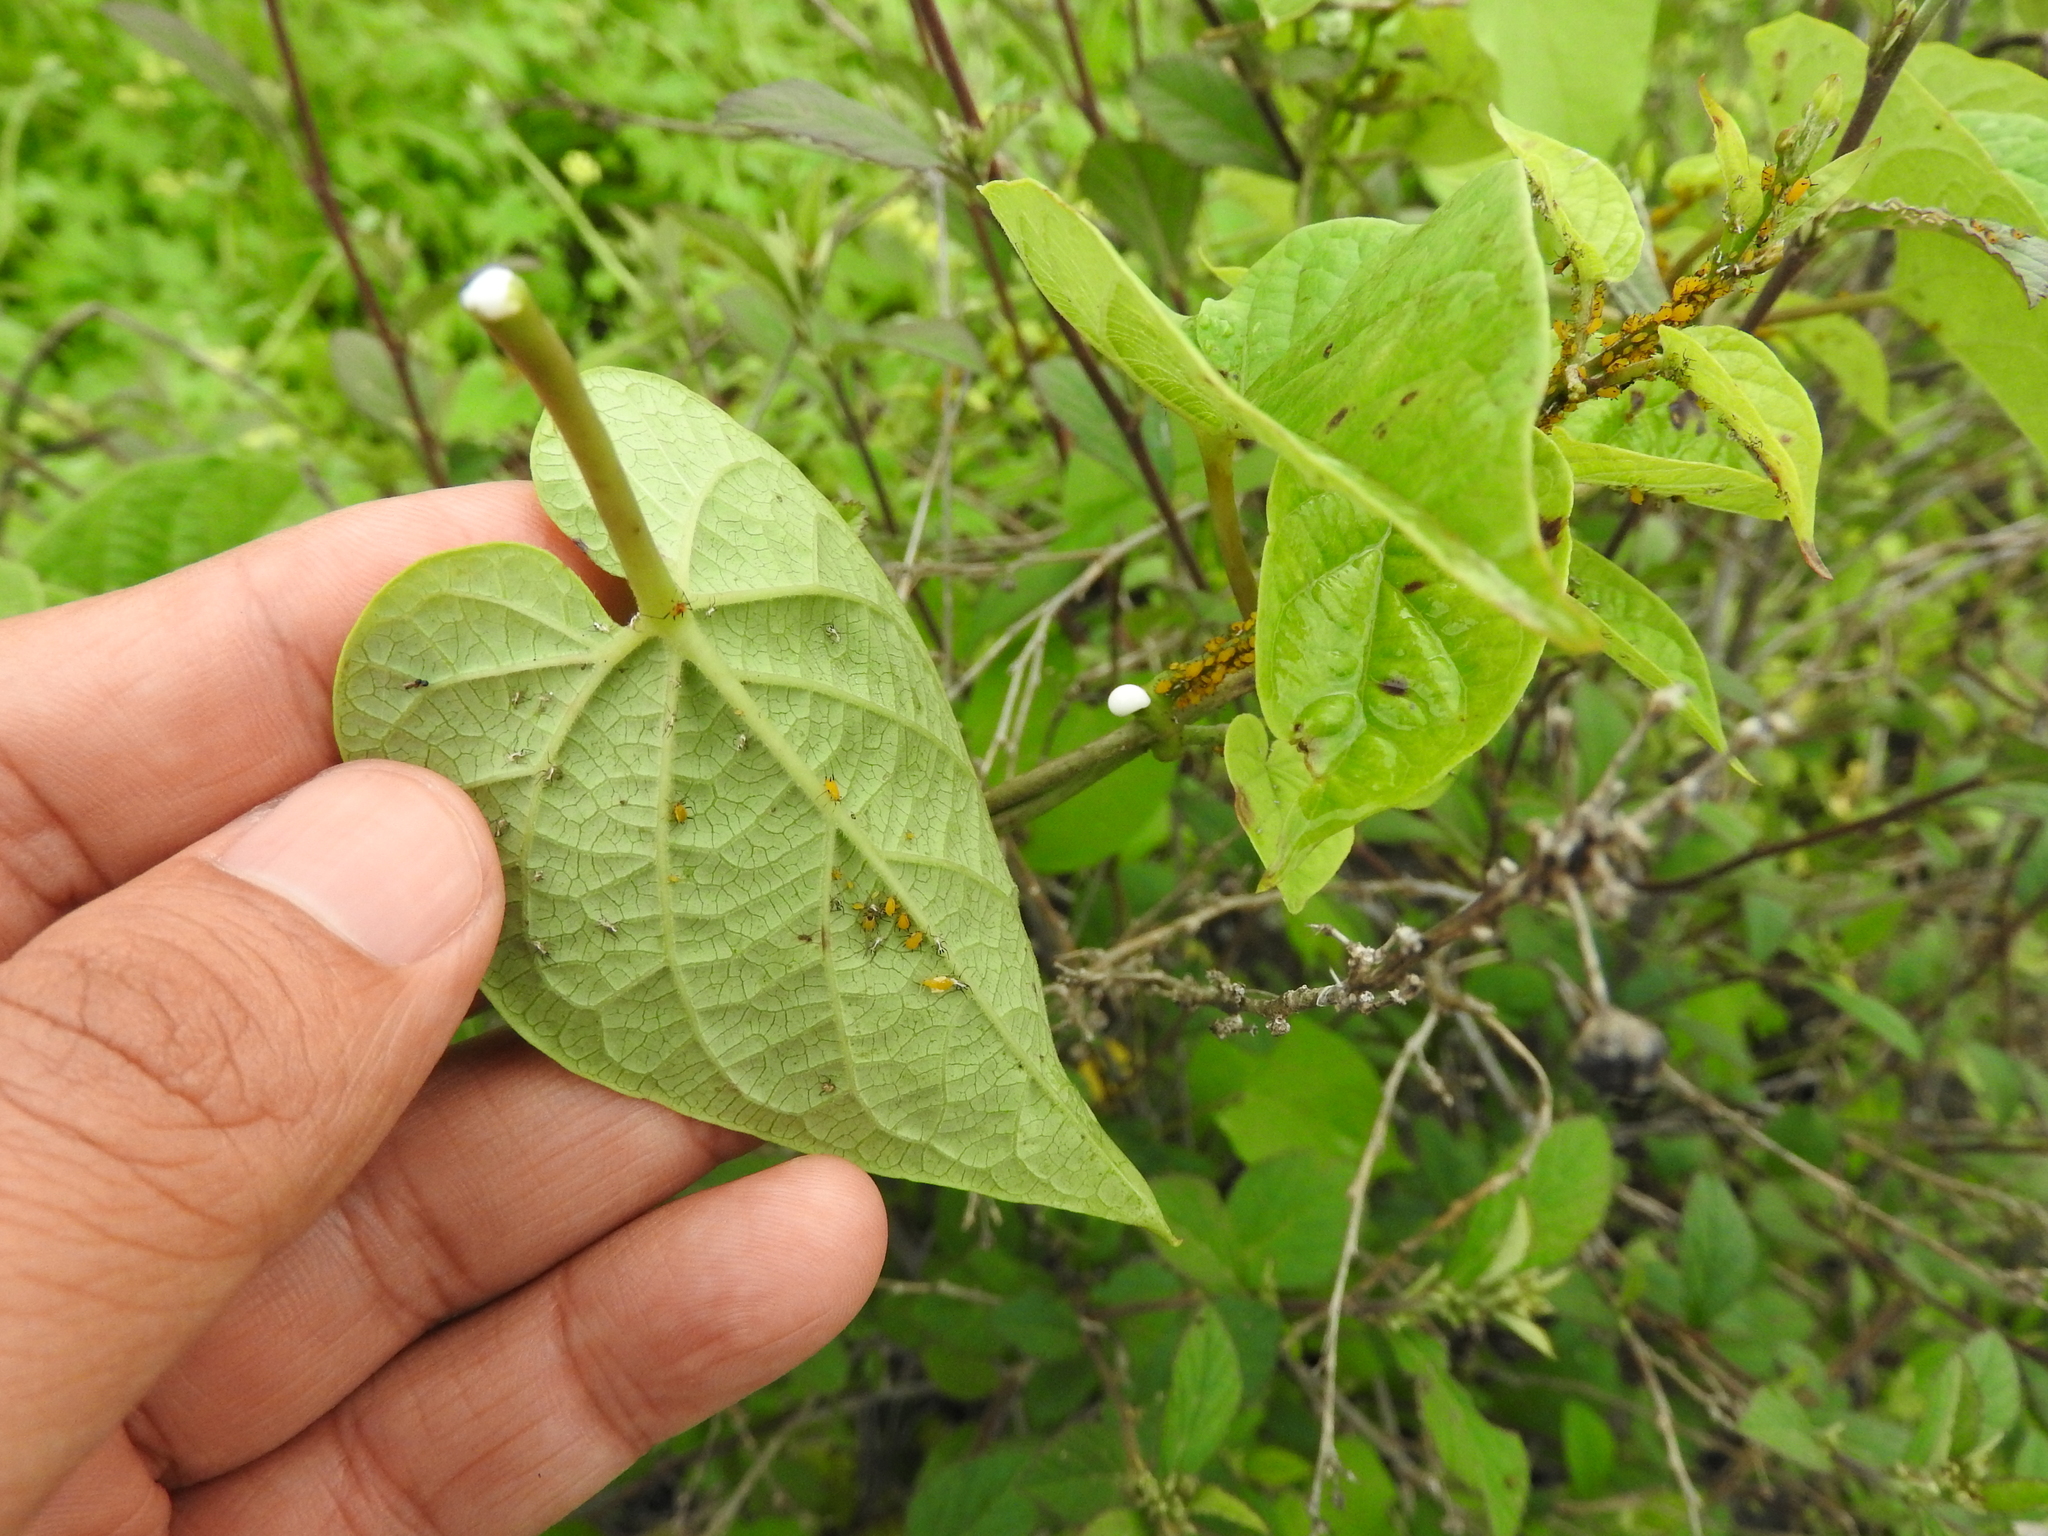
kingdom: Plantae
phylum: Tracheophyta
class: Magnoliopsida
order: Gentianales
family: Apocynaceae
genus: Cynanchum
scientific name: Cynanchum foetidum
